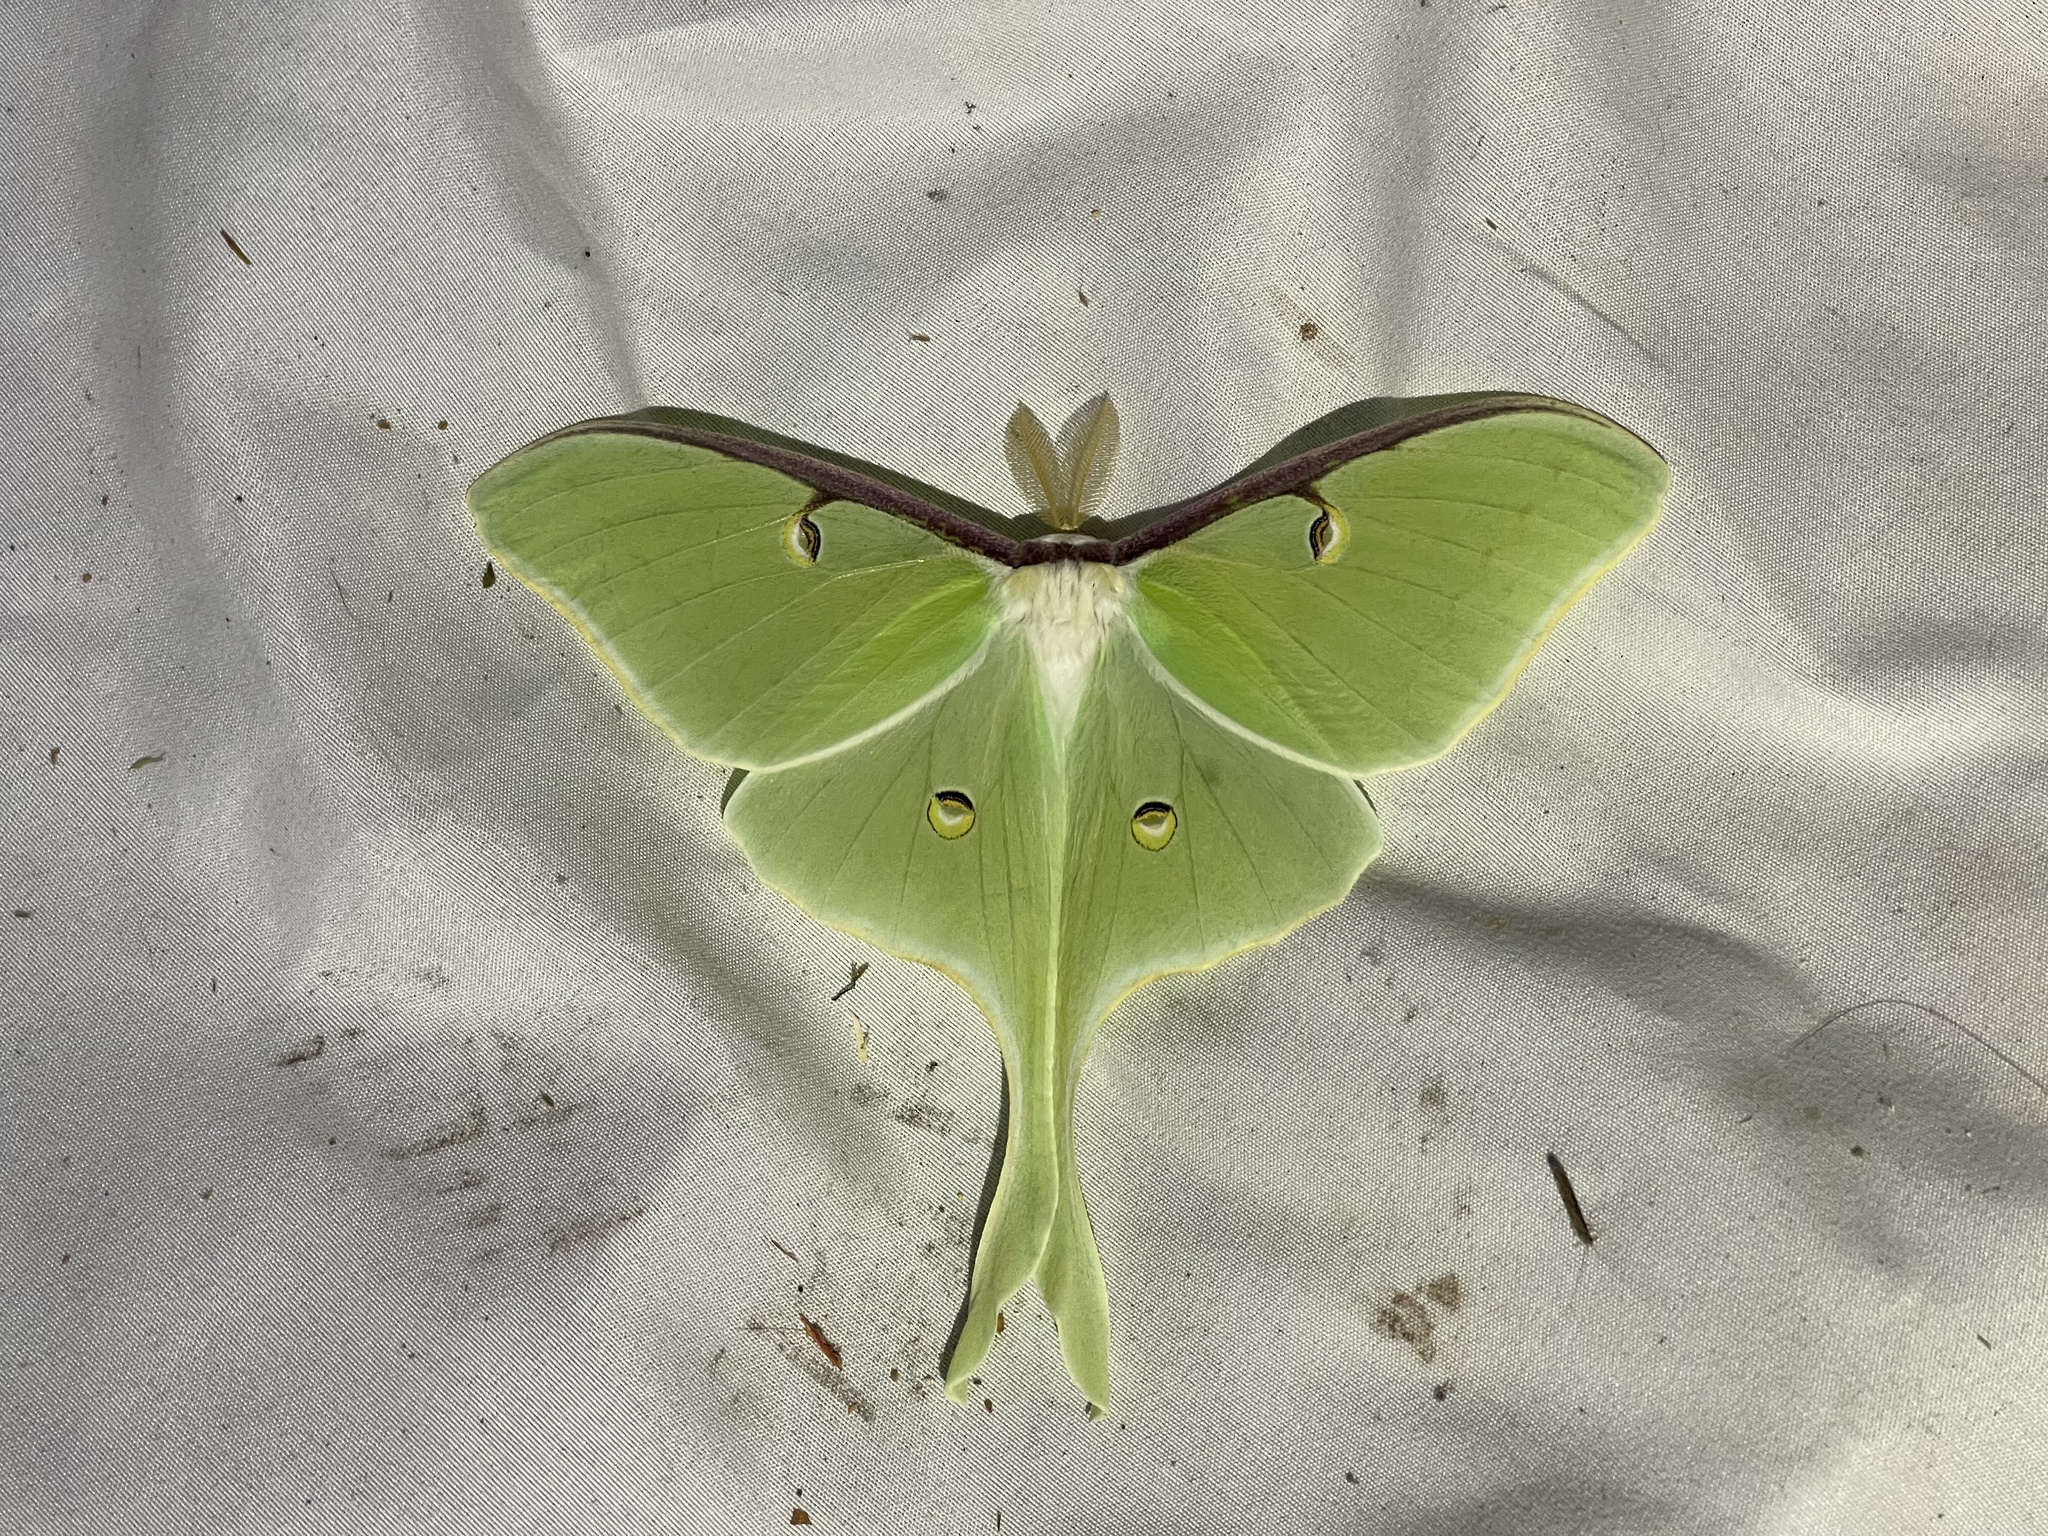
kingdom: Animalia
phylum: Arthropoda
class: Insecta
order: Lepidoptera
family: Saturniidae
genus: Actias
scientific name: Actias luna
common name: Luna moth
